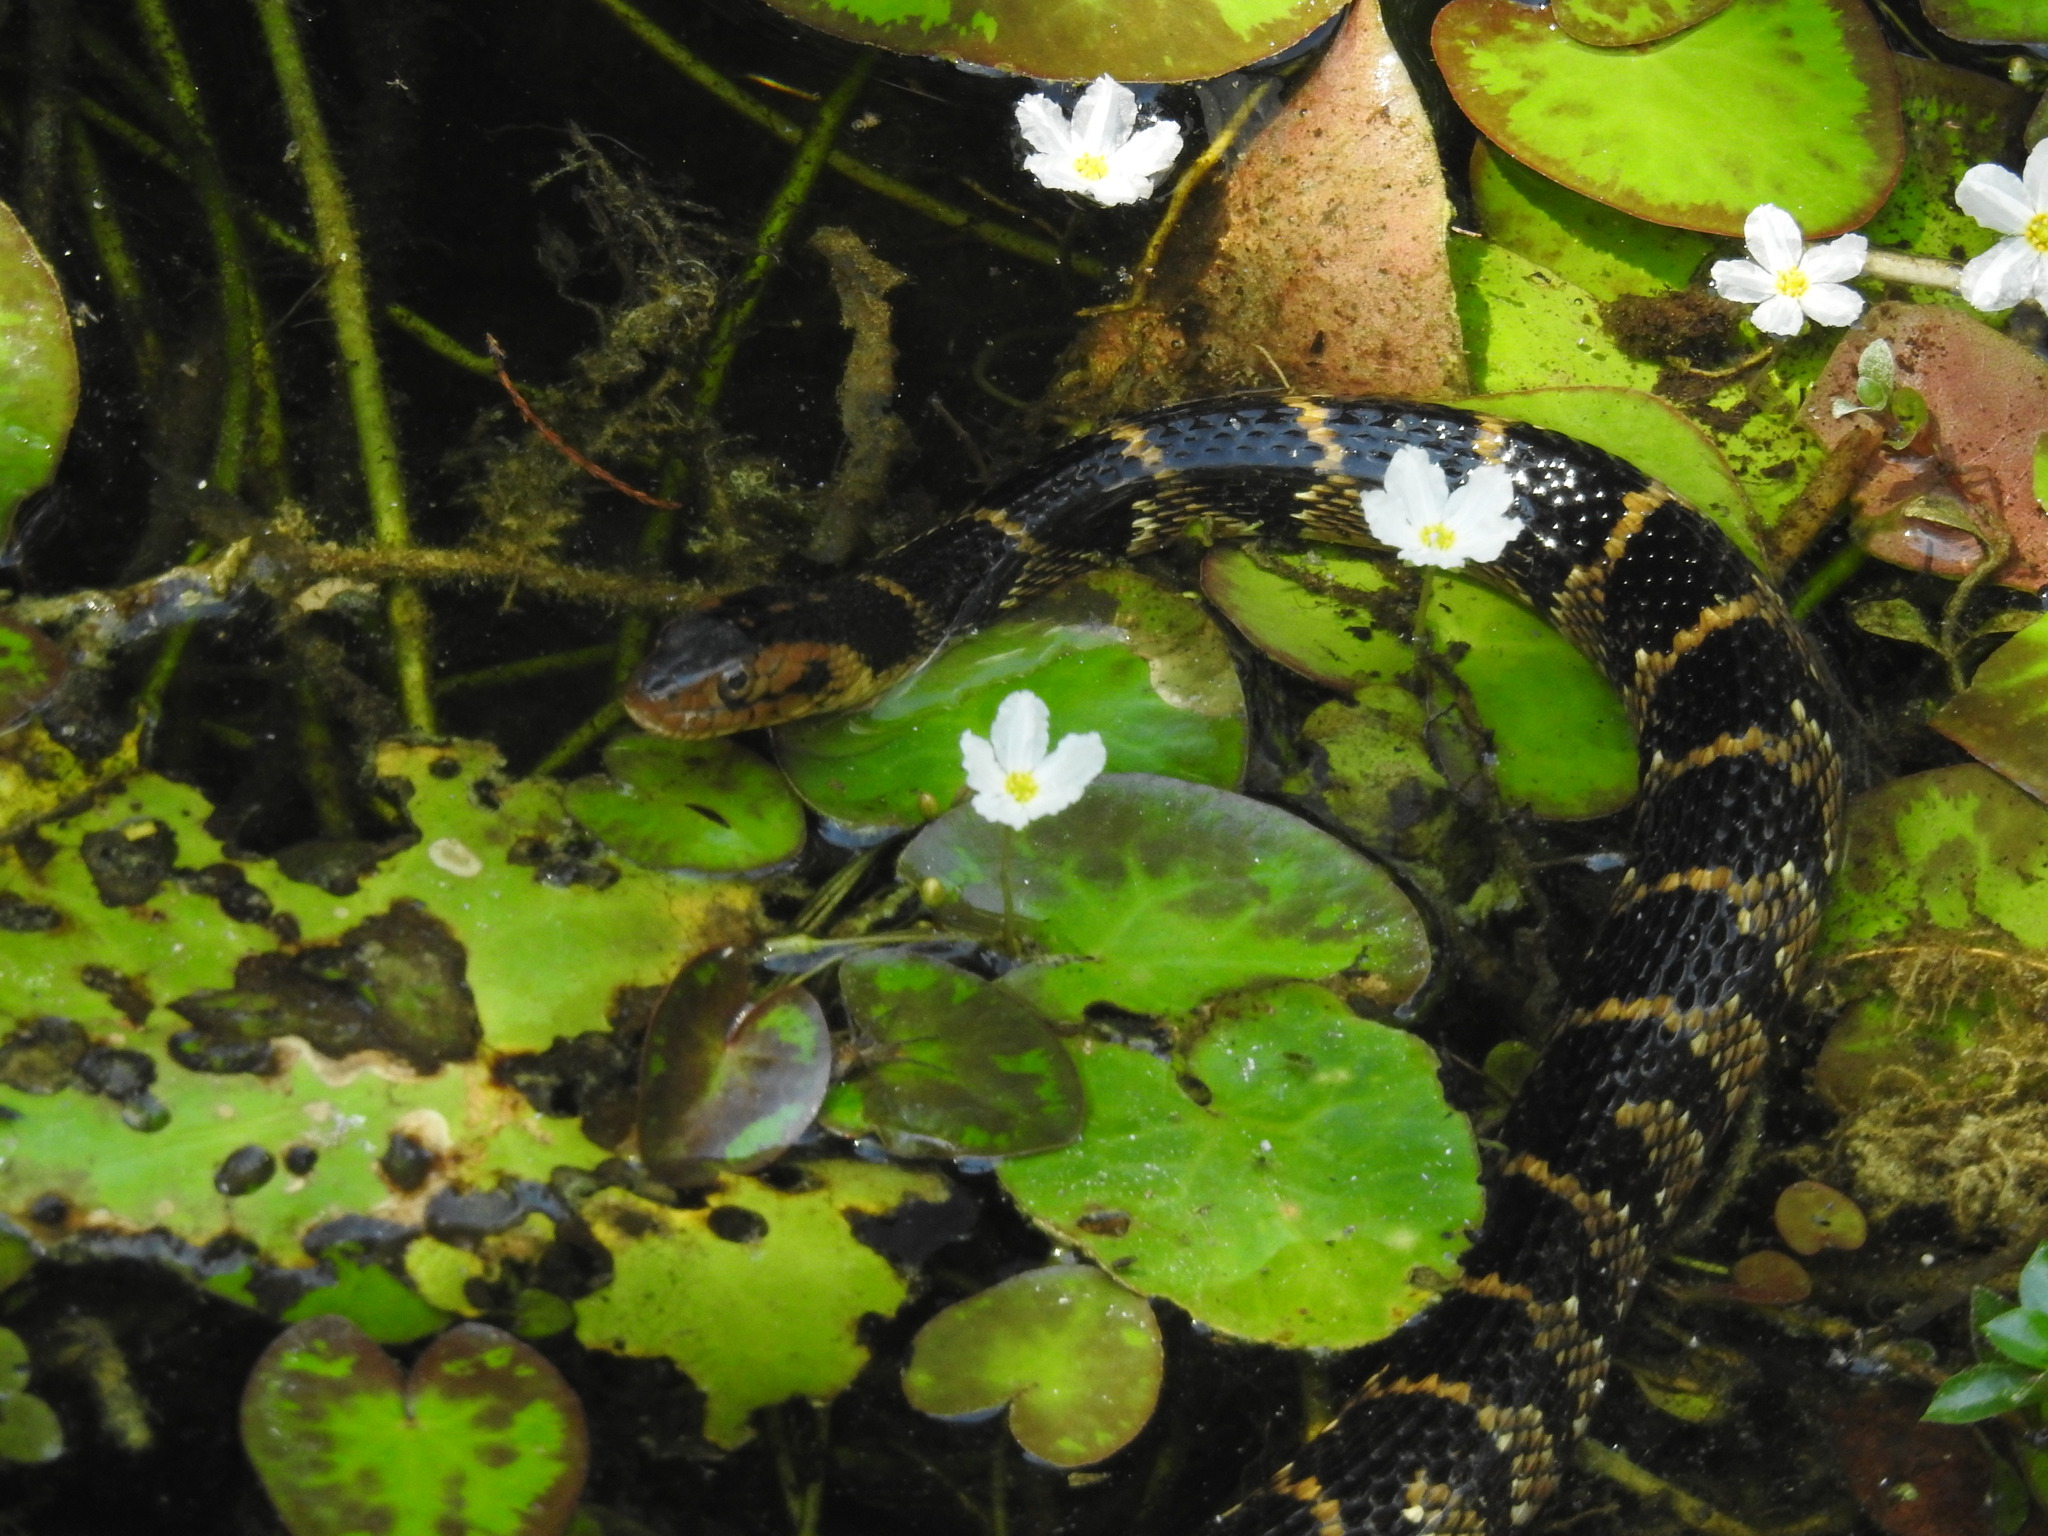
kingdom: Animalia
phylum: Chordata
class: Squamata
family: Colubridae
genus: Nerodia
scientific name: Nerodia fasciata
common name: Southern water snake
